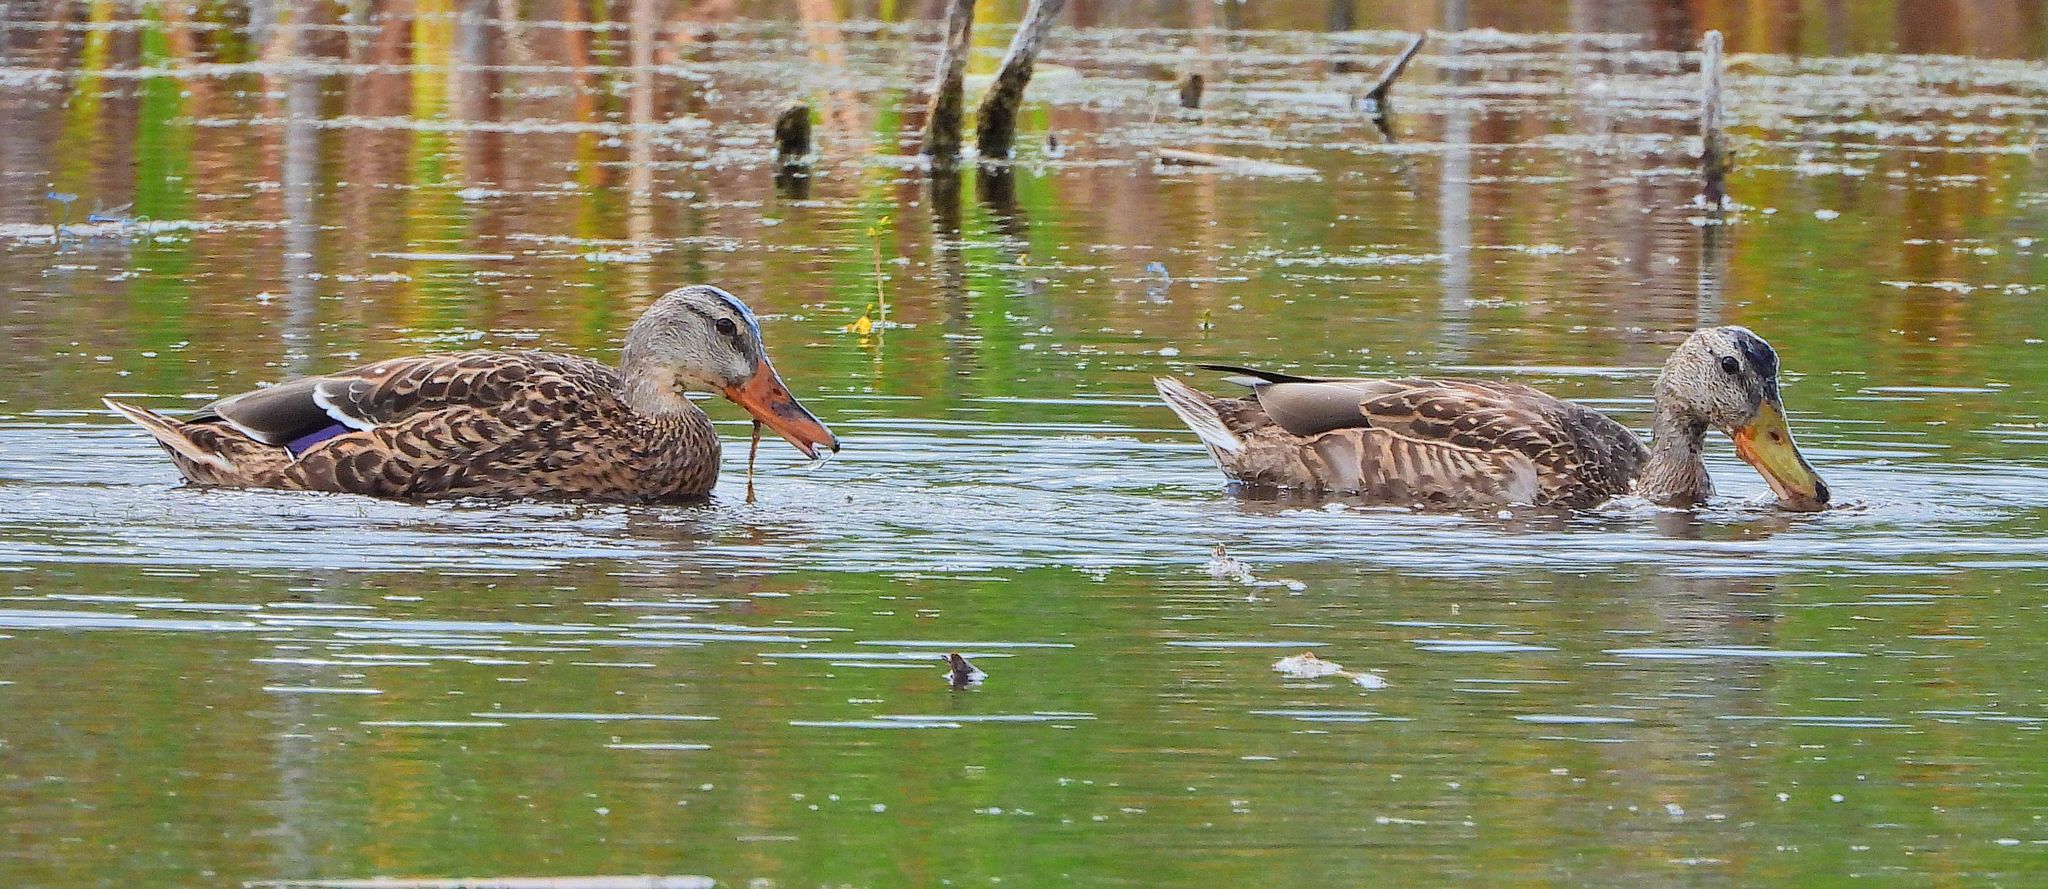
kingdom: Animalia
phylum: Chordata
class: Aves
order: Anseriformes
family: Anatidae
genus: Anas
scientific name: Anas platyrhynchos
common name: Mallard
